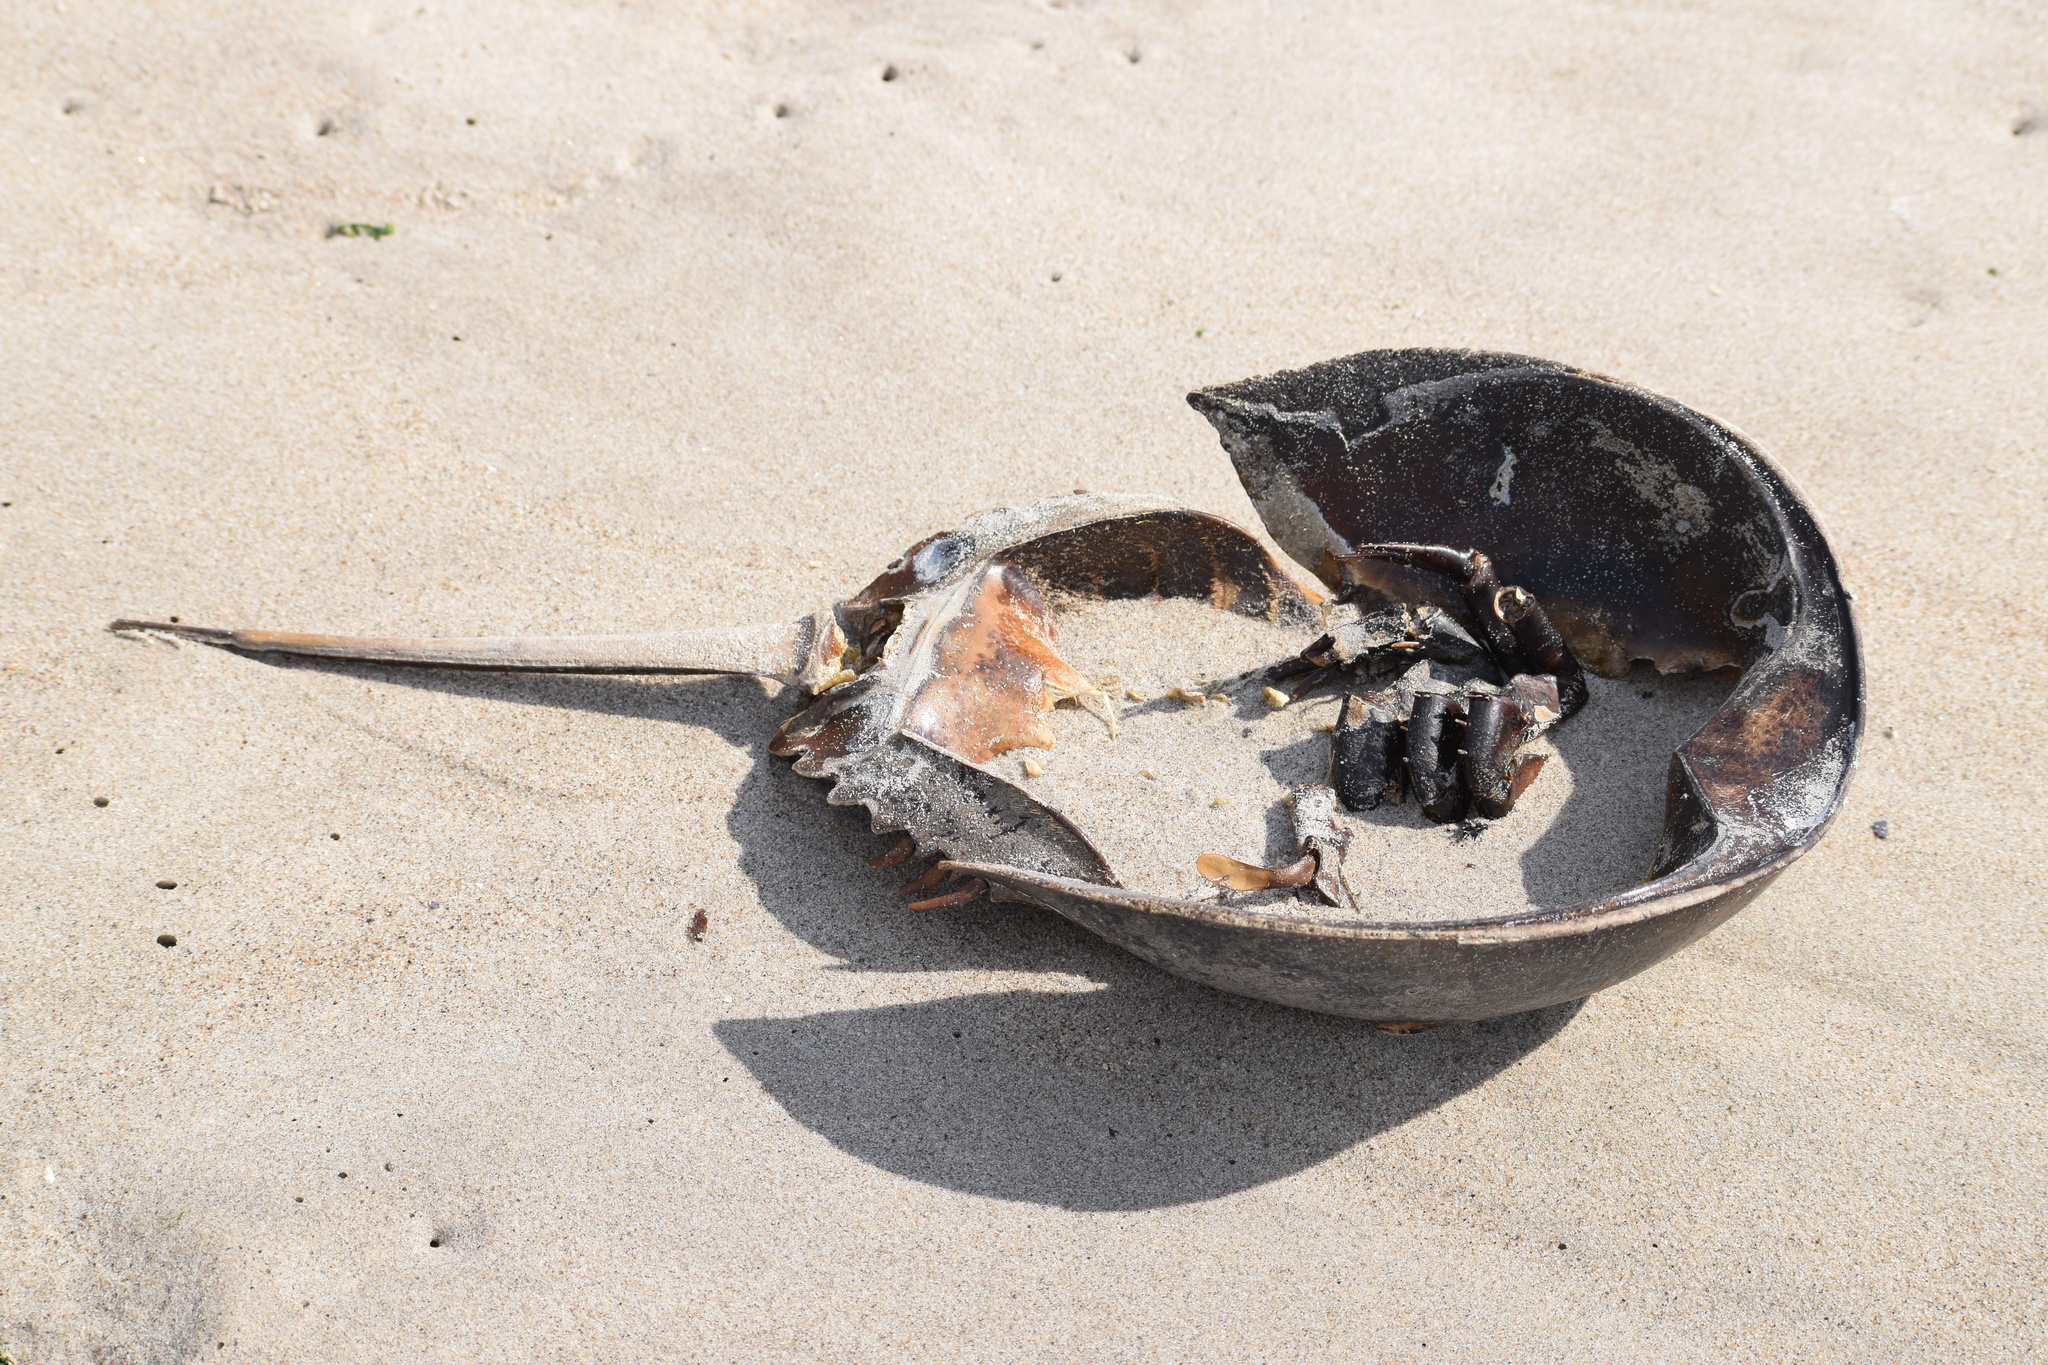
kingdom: Animalia
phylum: Arthropoda
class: Merostomata
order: Xiphosurida
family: Limulidae
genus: Limulus
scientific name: Limulus polyphemus
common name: Horseshoe crab
